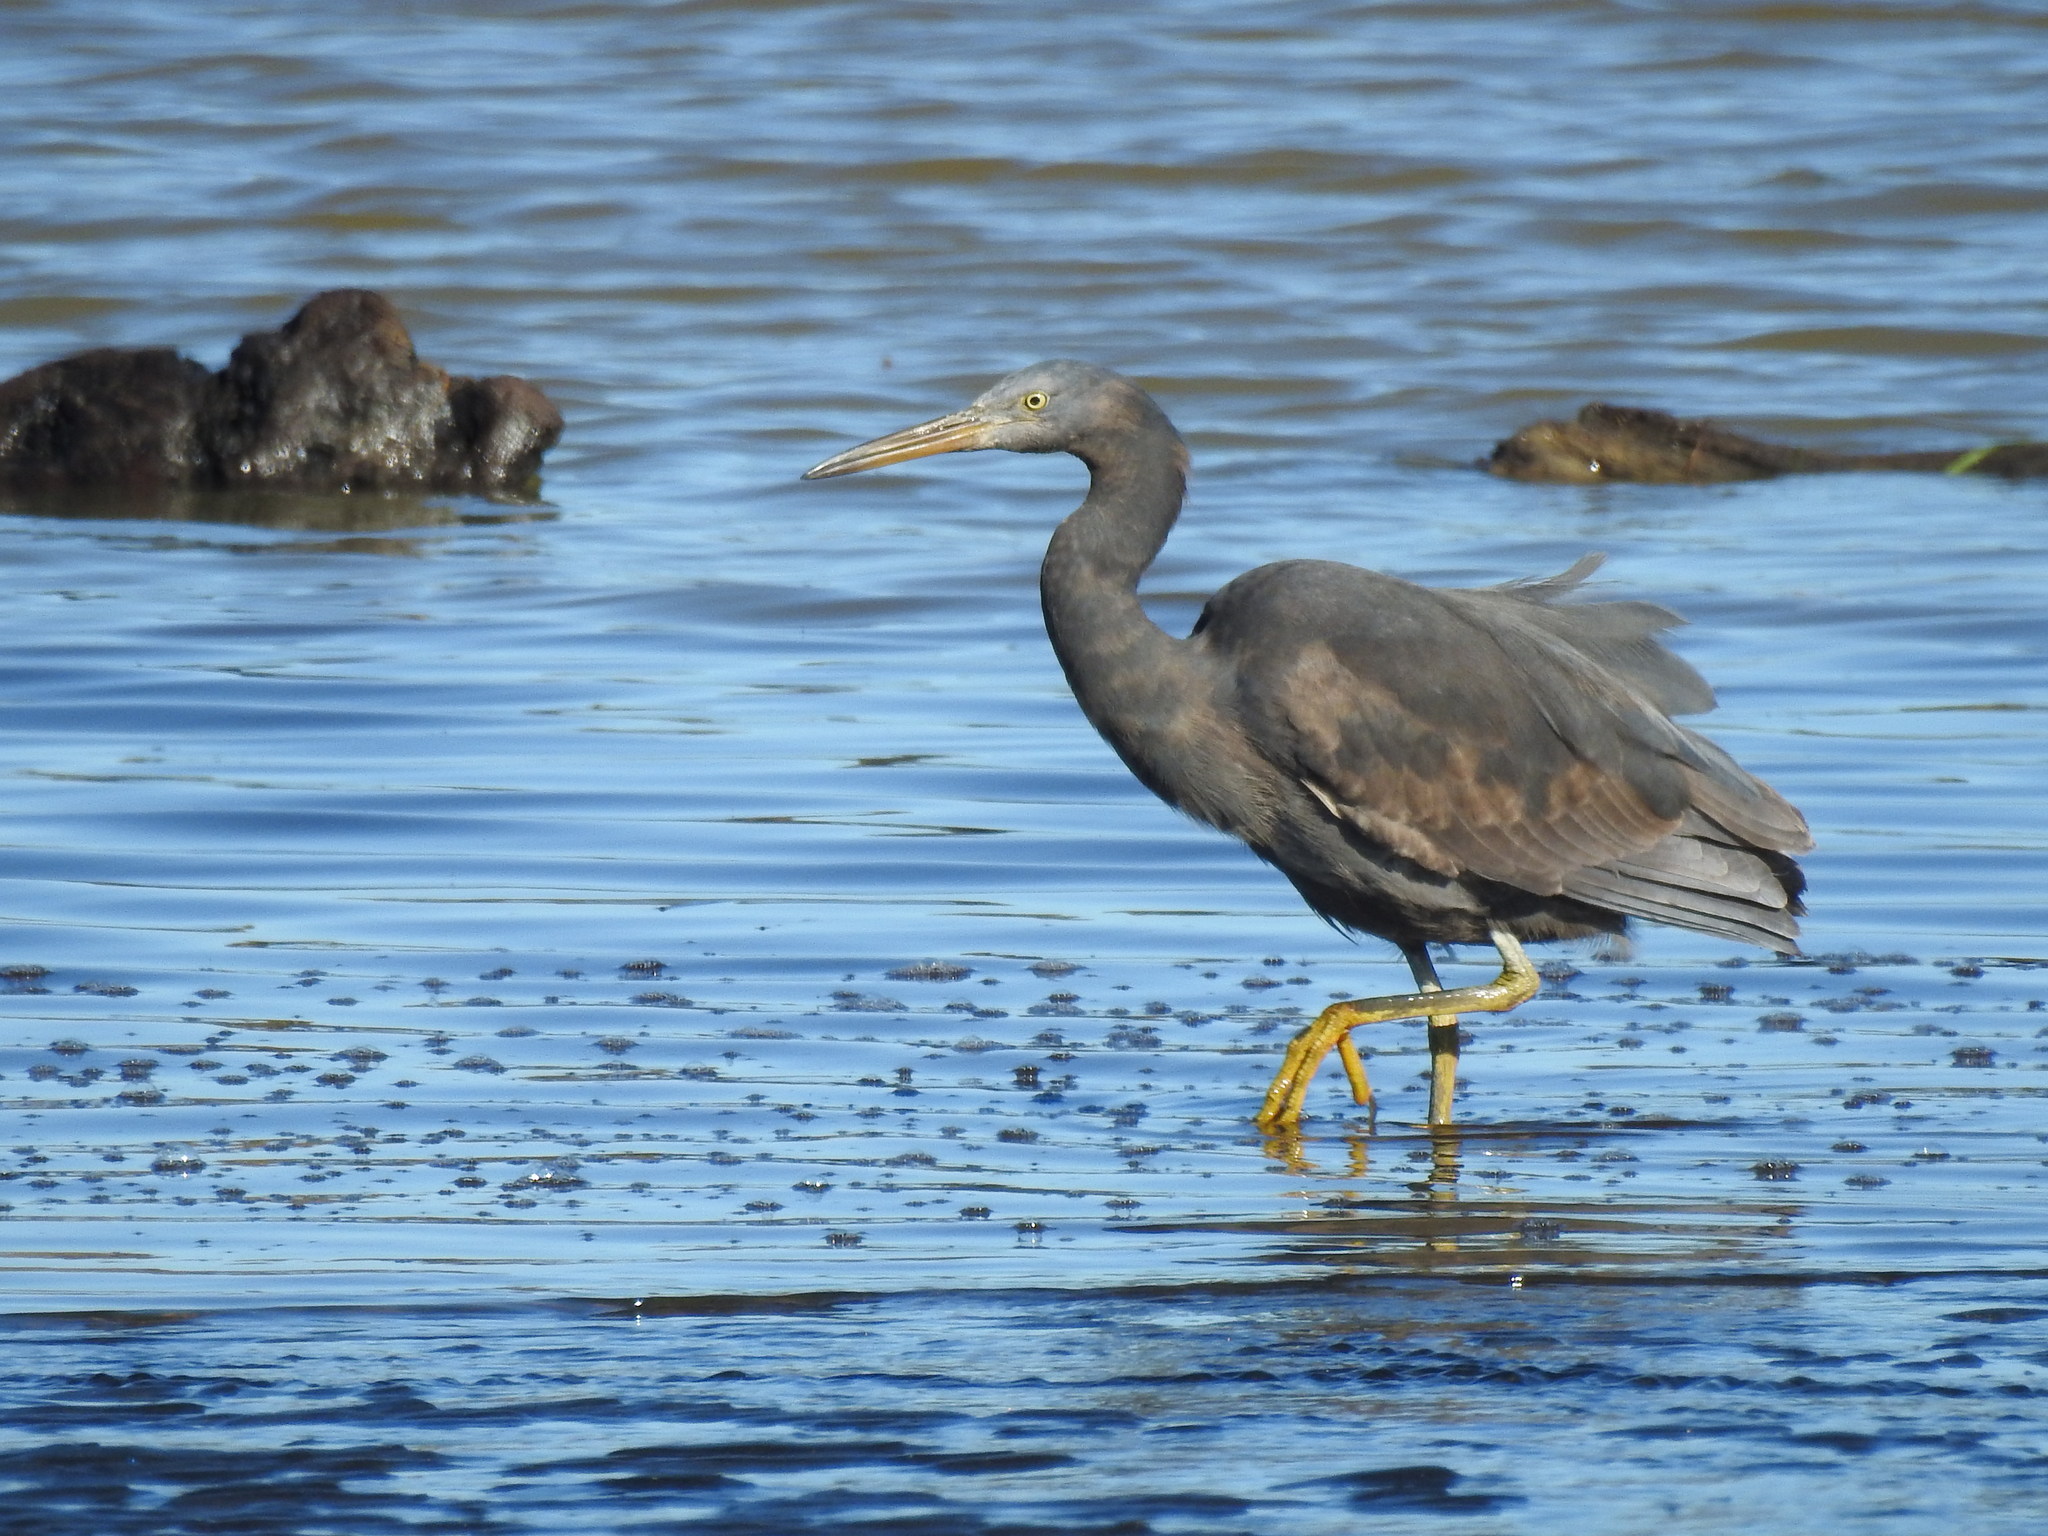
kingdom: Animalia
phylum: Chordata
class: Aves
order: Pelecaniformes
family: Ardeidae
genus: Egretta
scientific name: Egretta sacra
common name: Pacific reef heron
